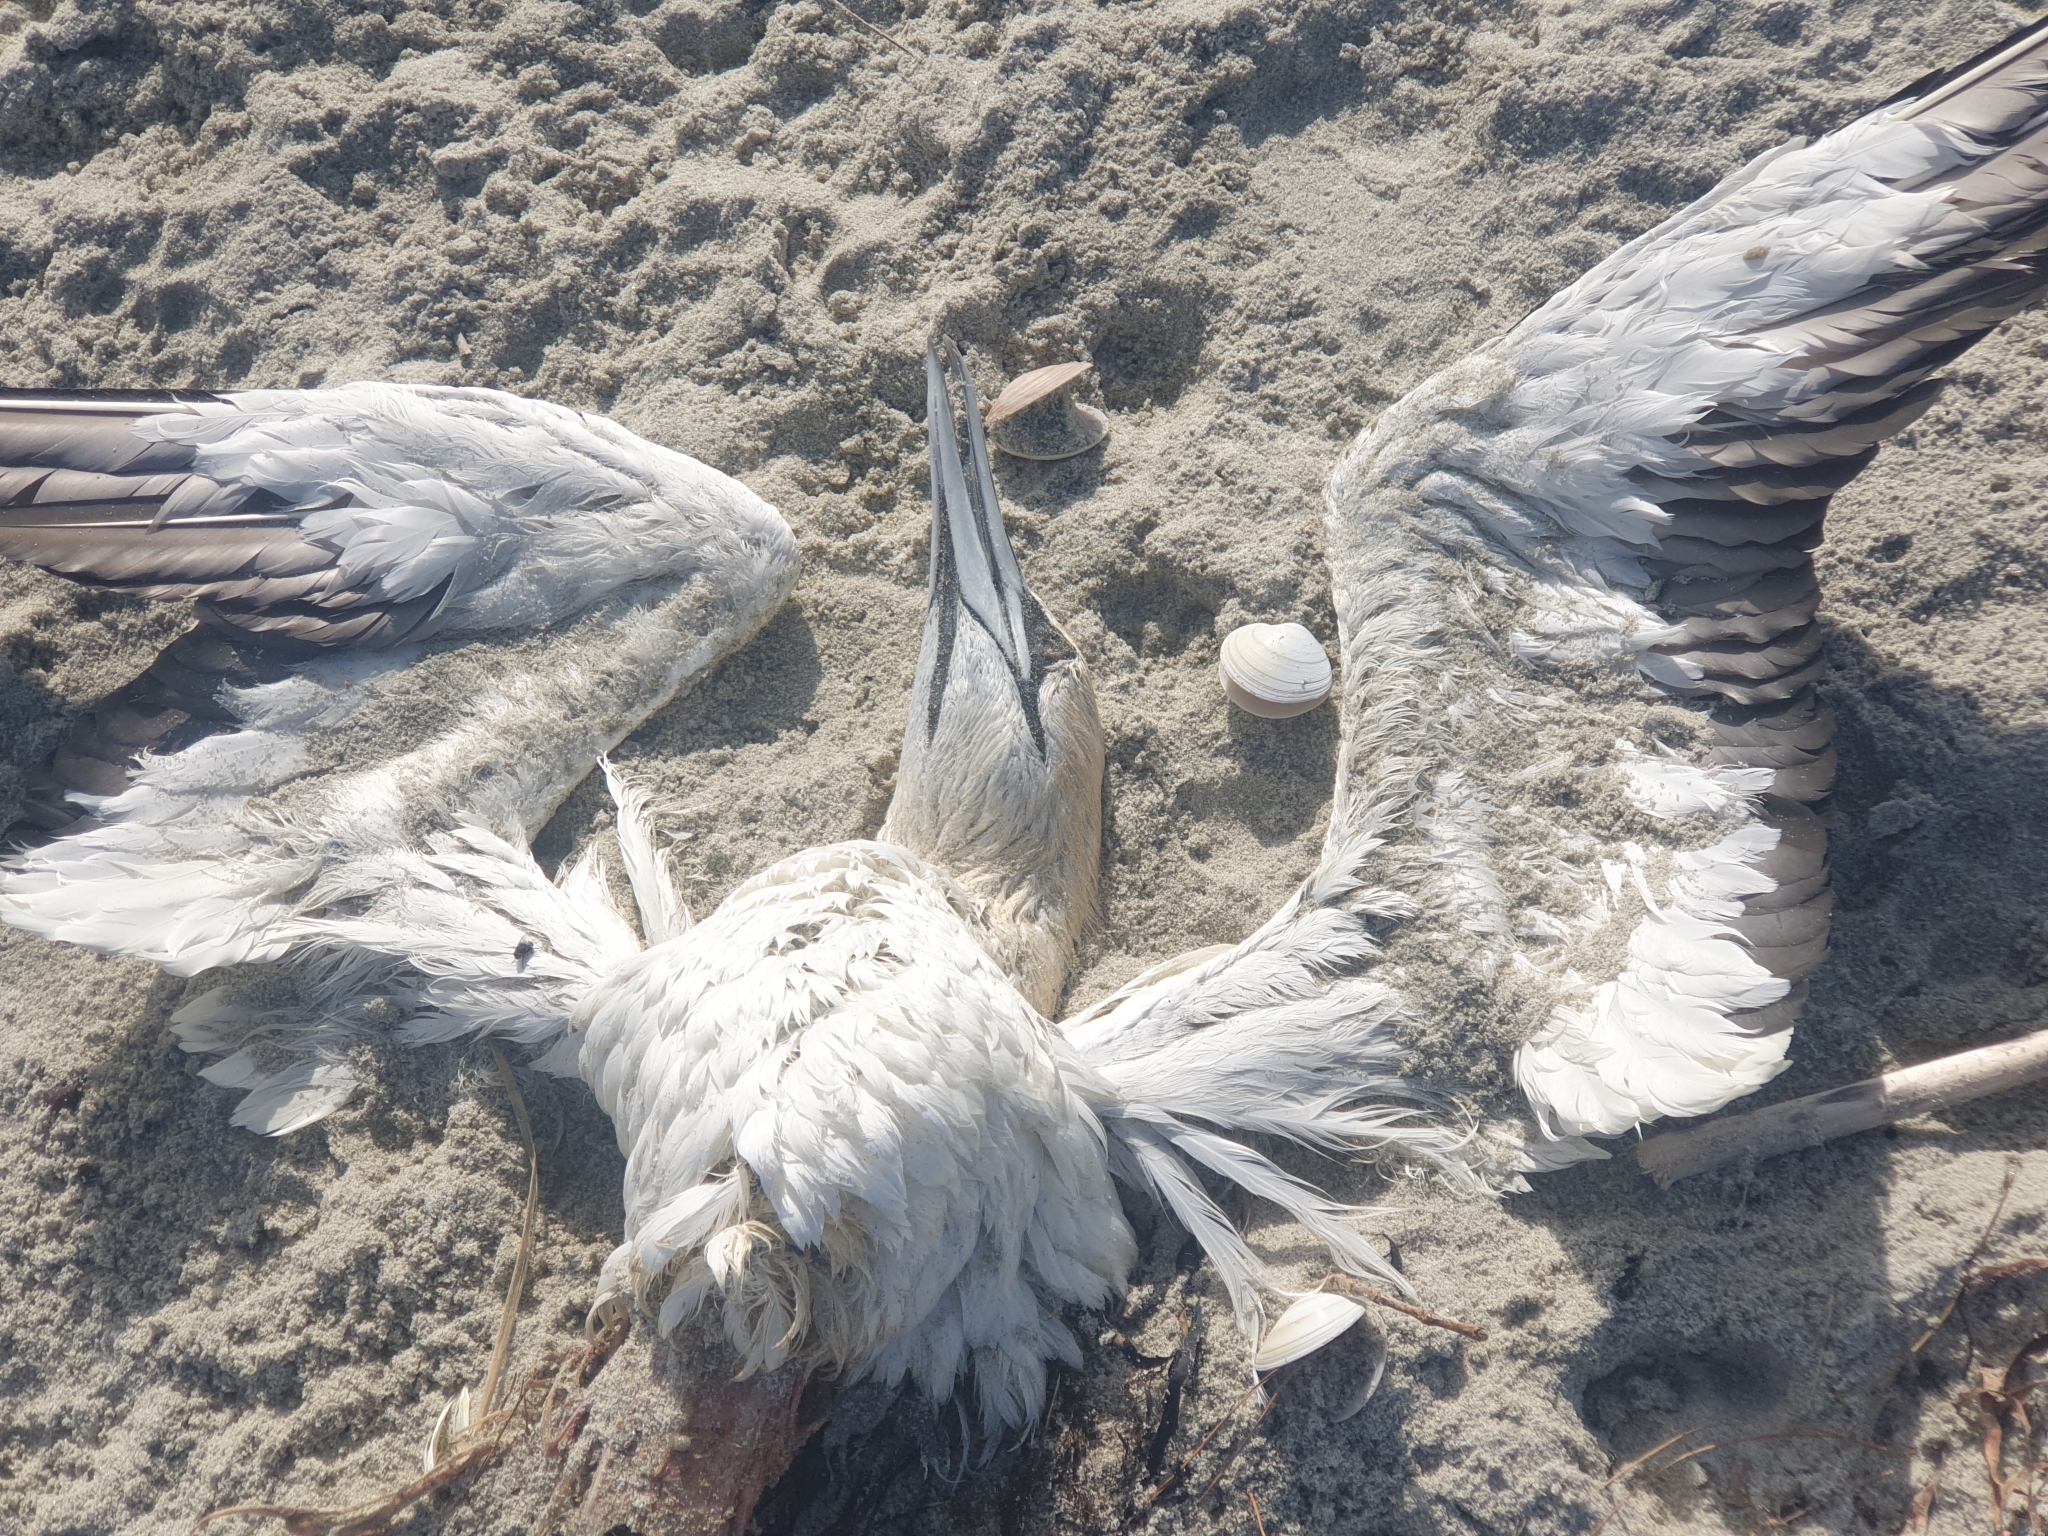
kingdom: Animalia
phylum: Chordata
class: Aves
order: Suliformes
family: Sulidae
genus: Morus
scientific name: Morus serrator
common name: Australasian gannet
